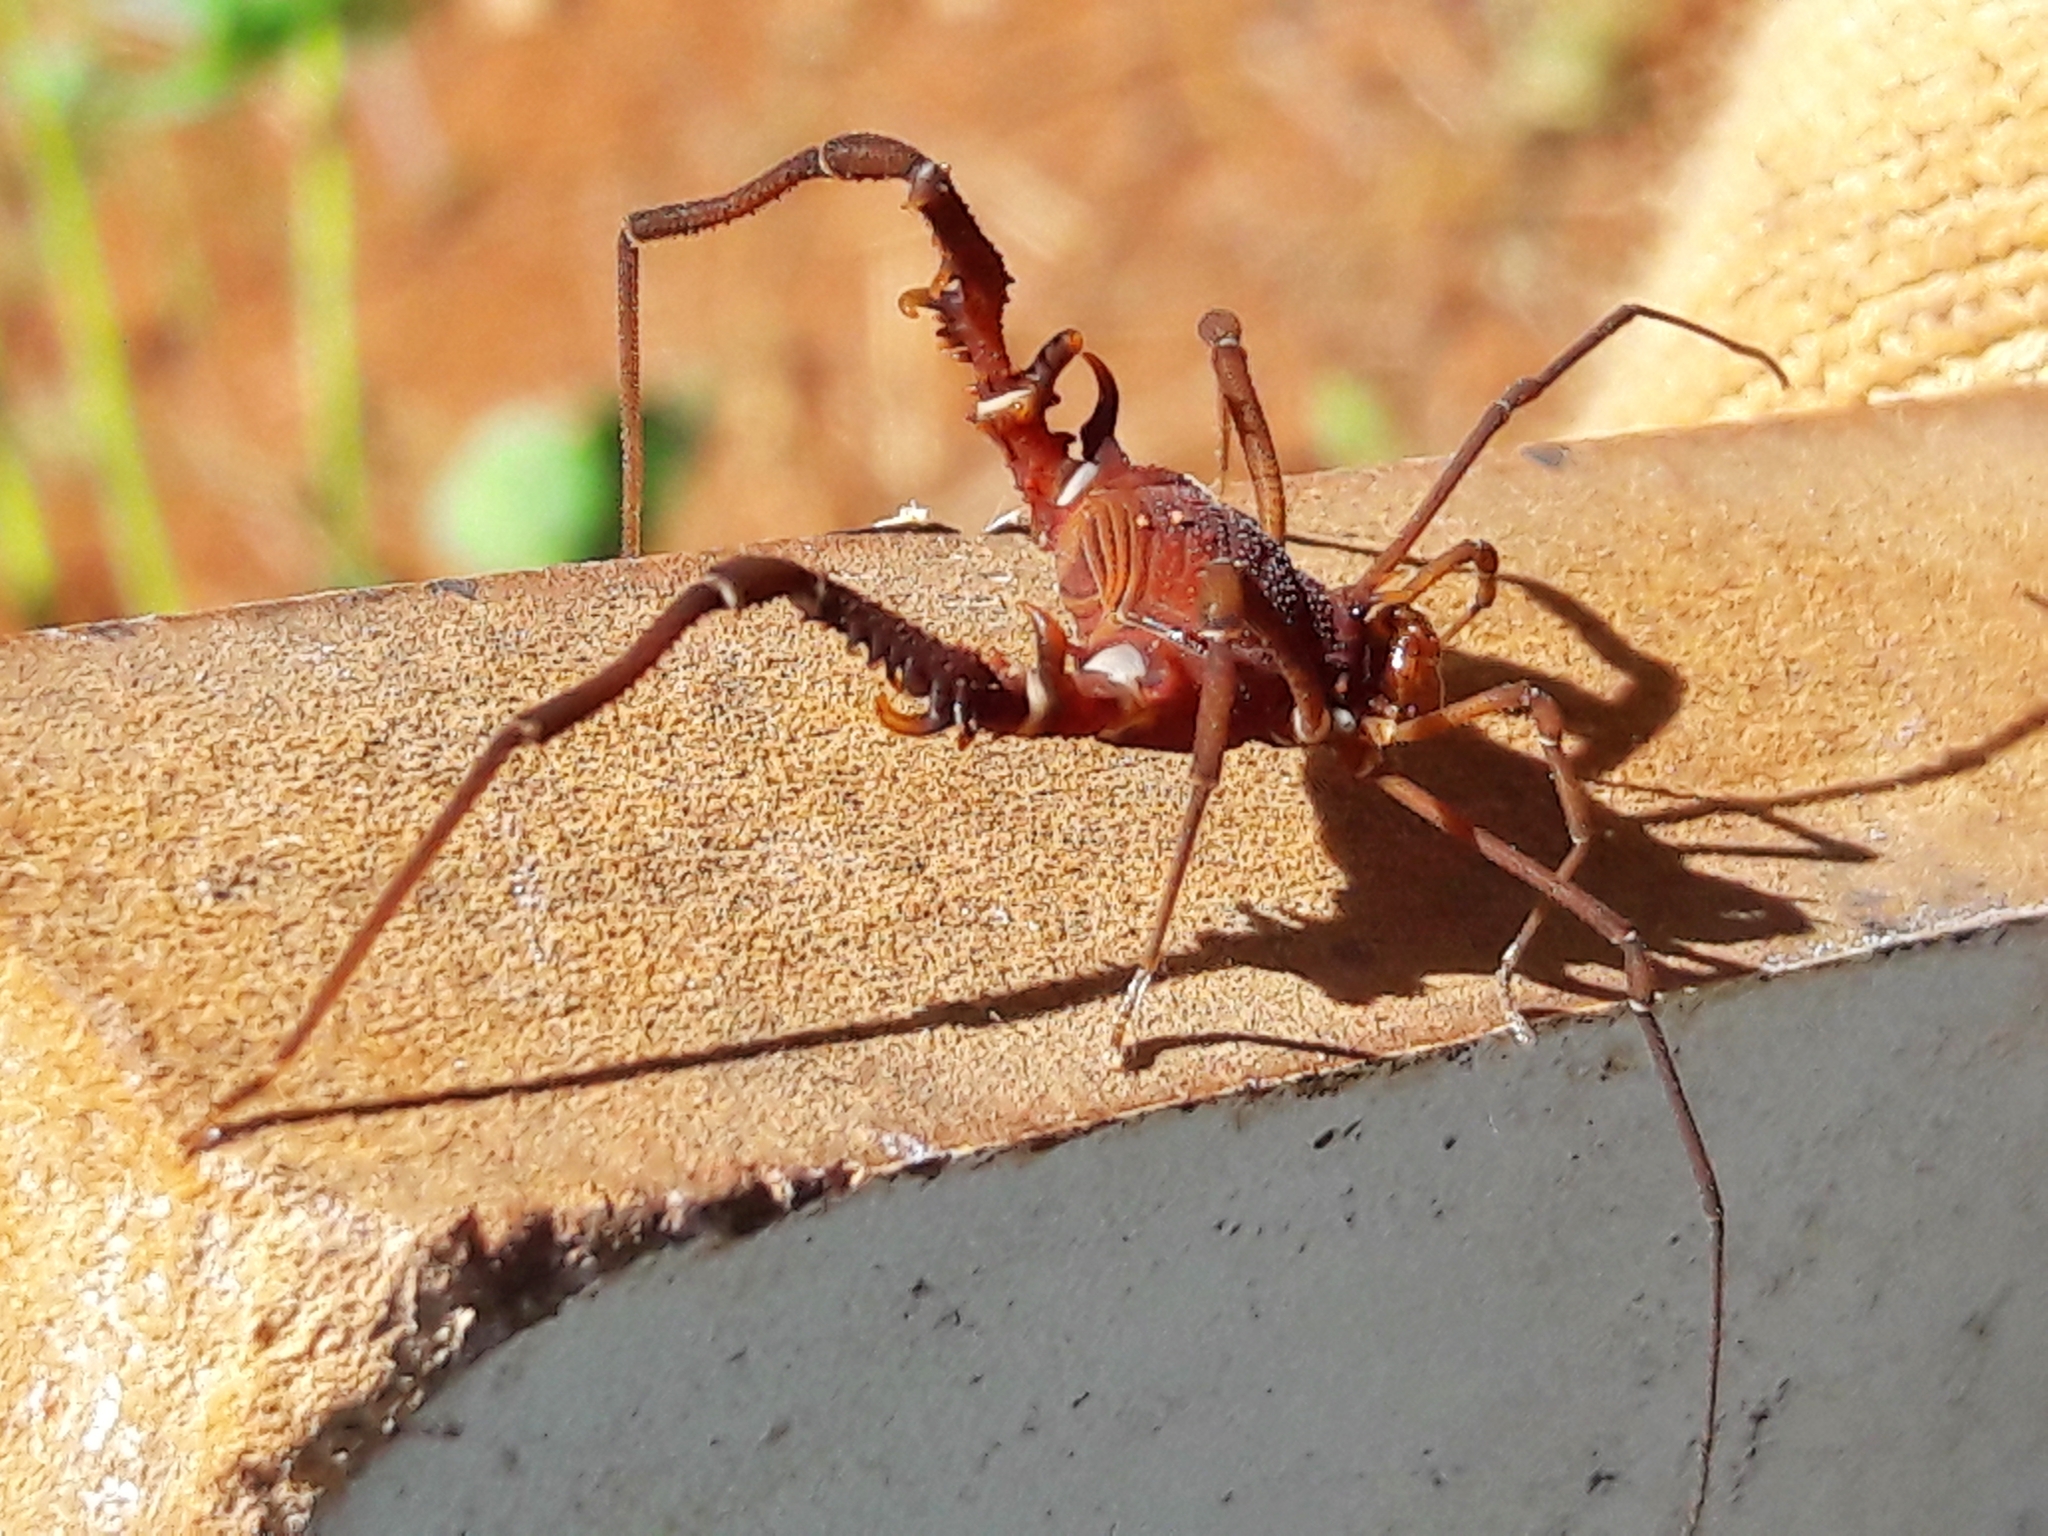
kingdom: Animalia
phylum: Arthropoda
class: Arachnida
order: Opiliones
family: Gonyleptidae
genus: Discocyrtanus
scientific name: Discocyrtanus oliverioi
